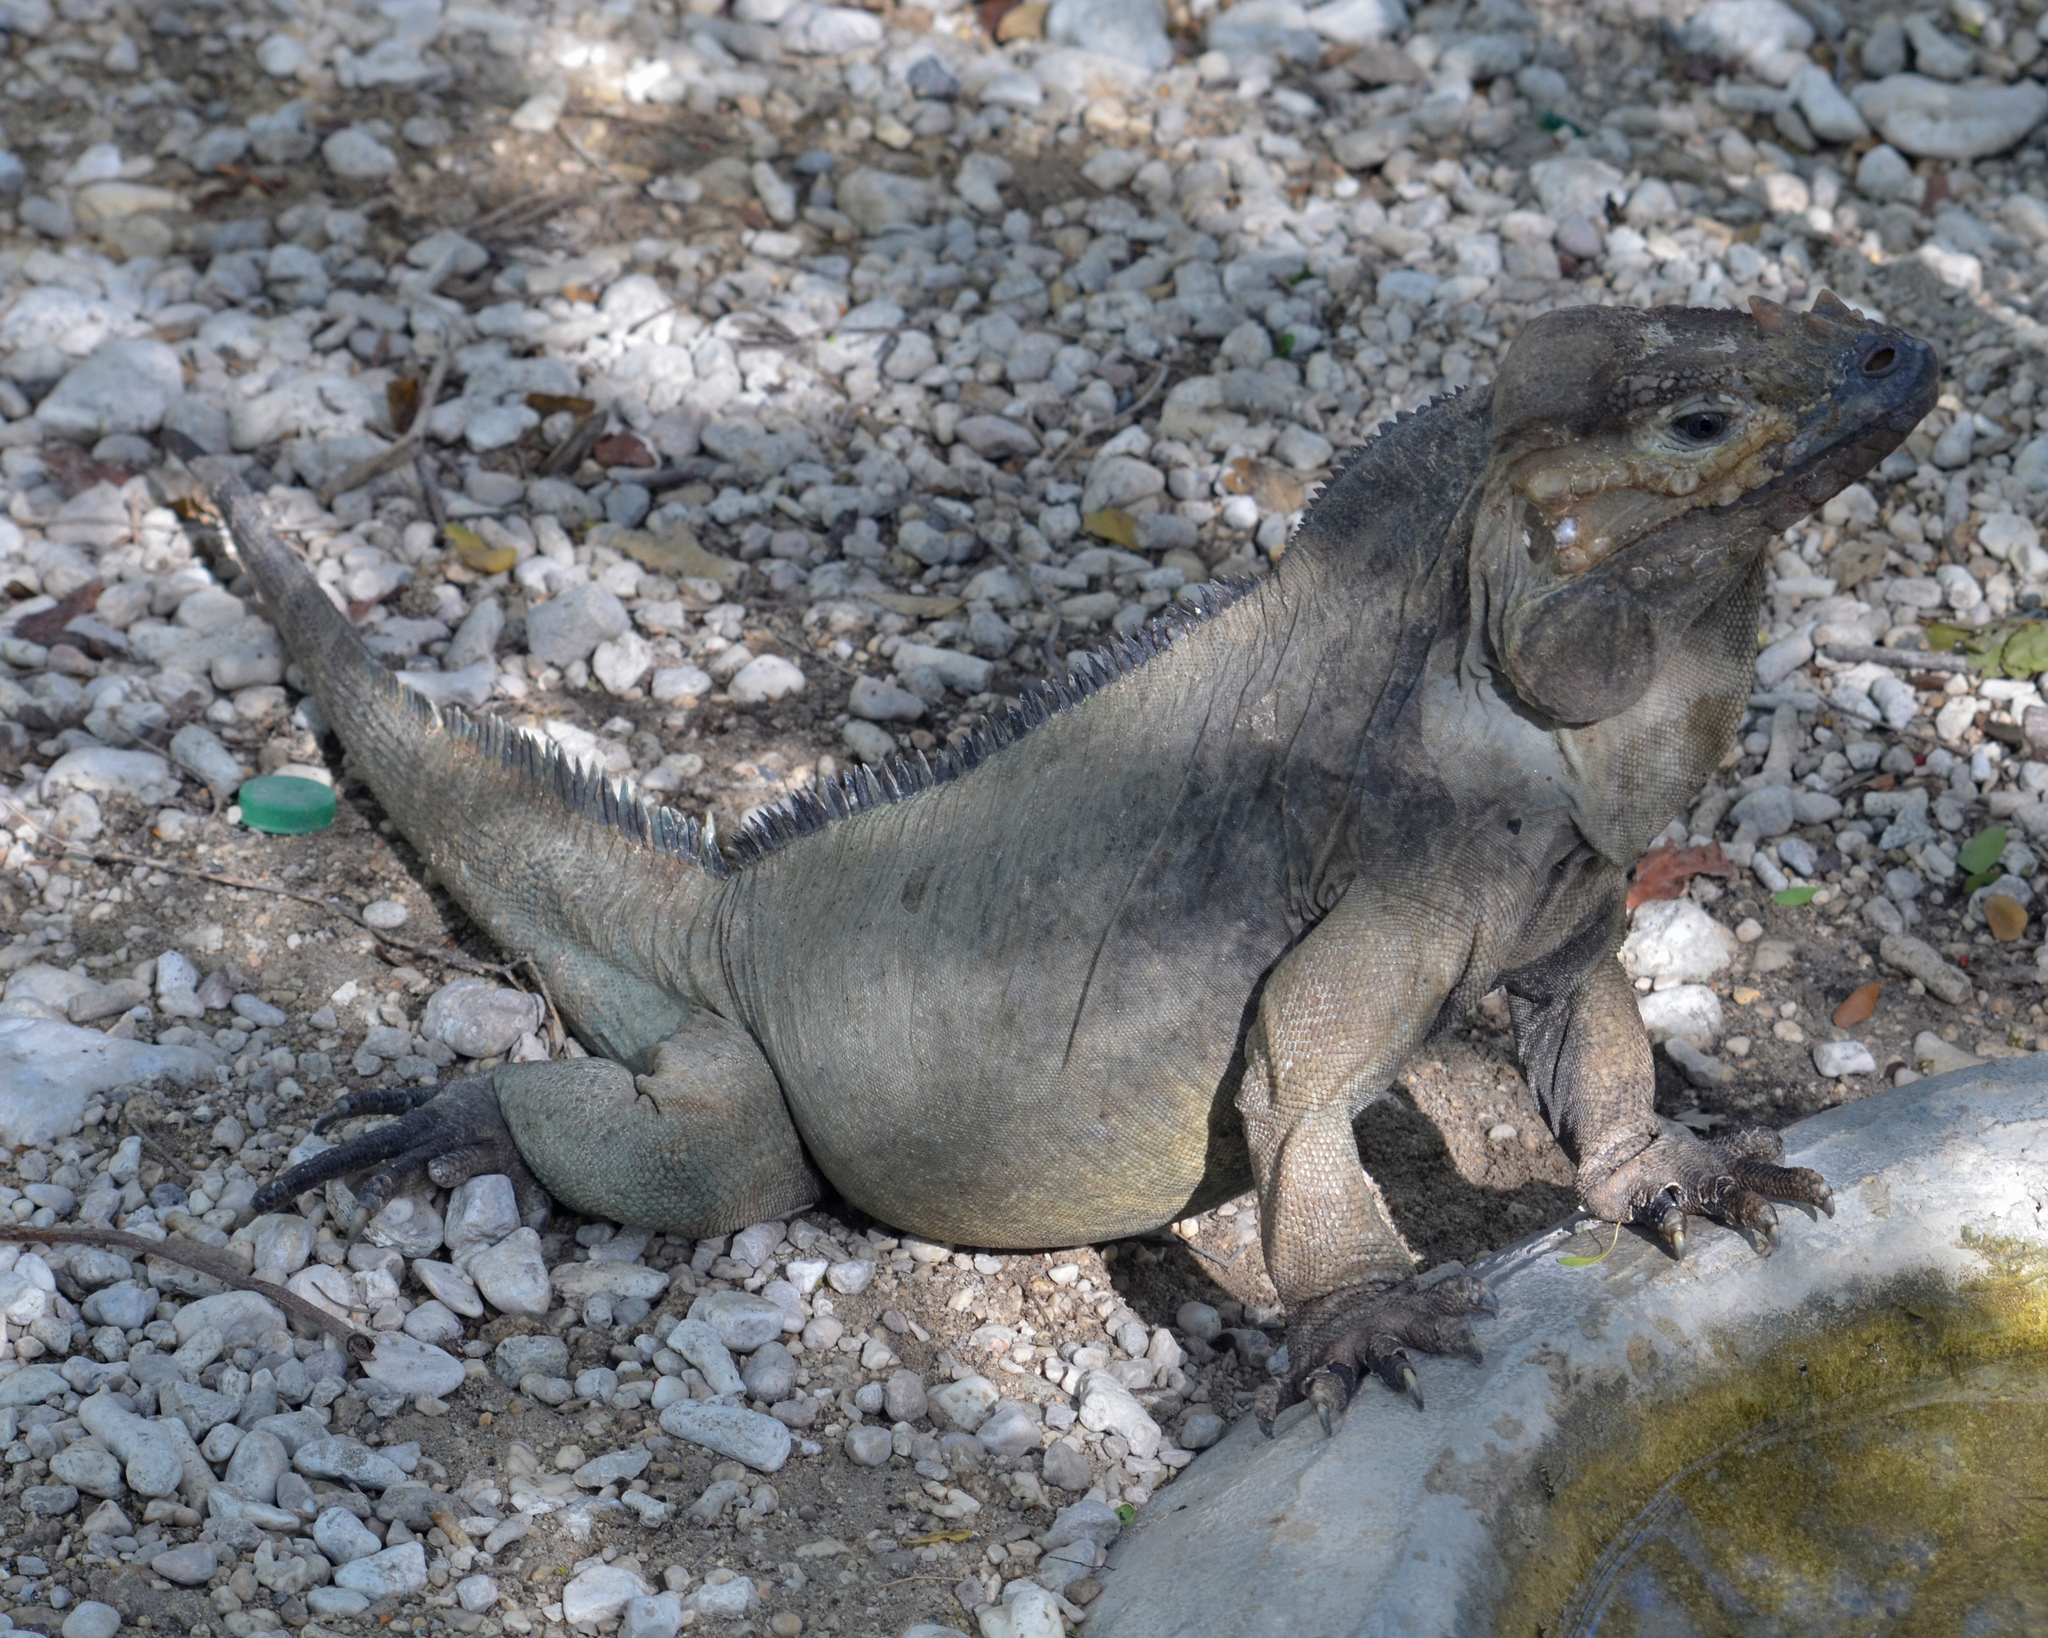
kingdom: Animalia
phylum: Chordata
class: Squamata
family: Iguanidae
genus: Cyclura
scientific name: Cyclura cornuta
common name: Hispaniolan rhinoceros iguana
